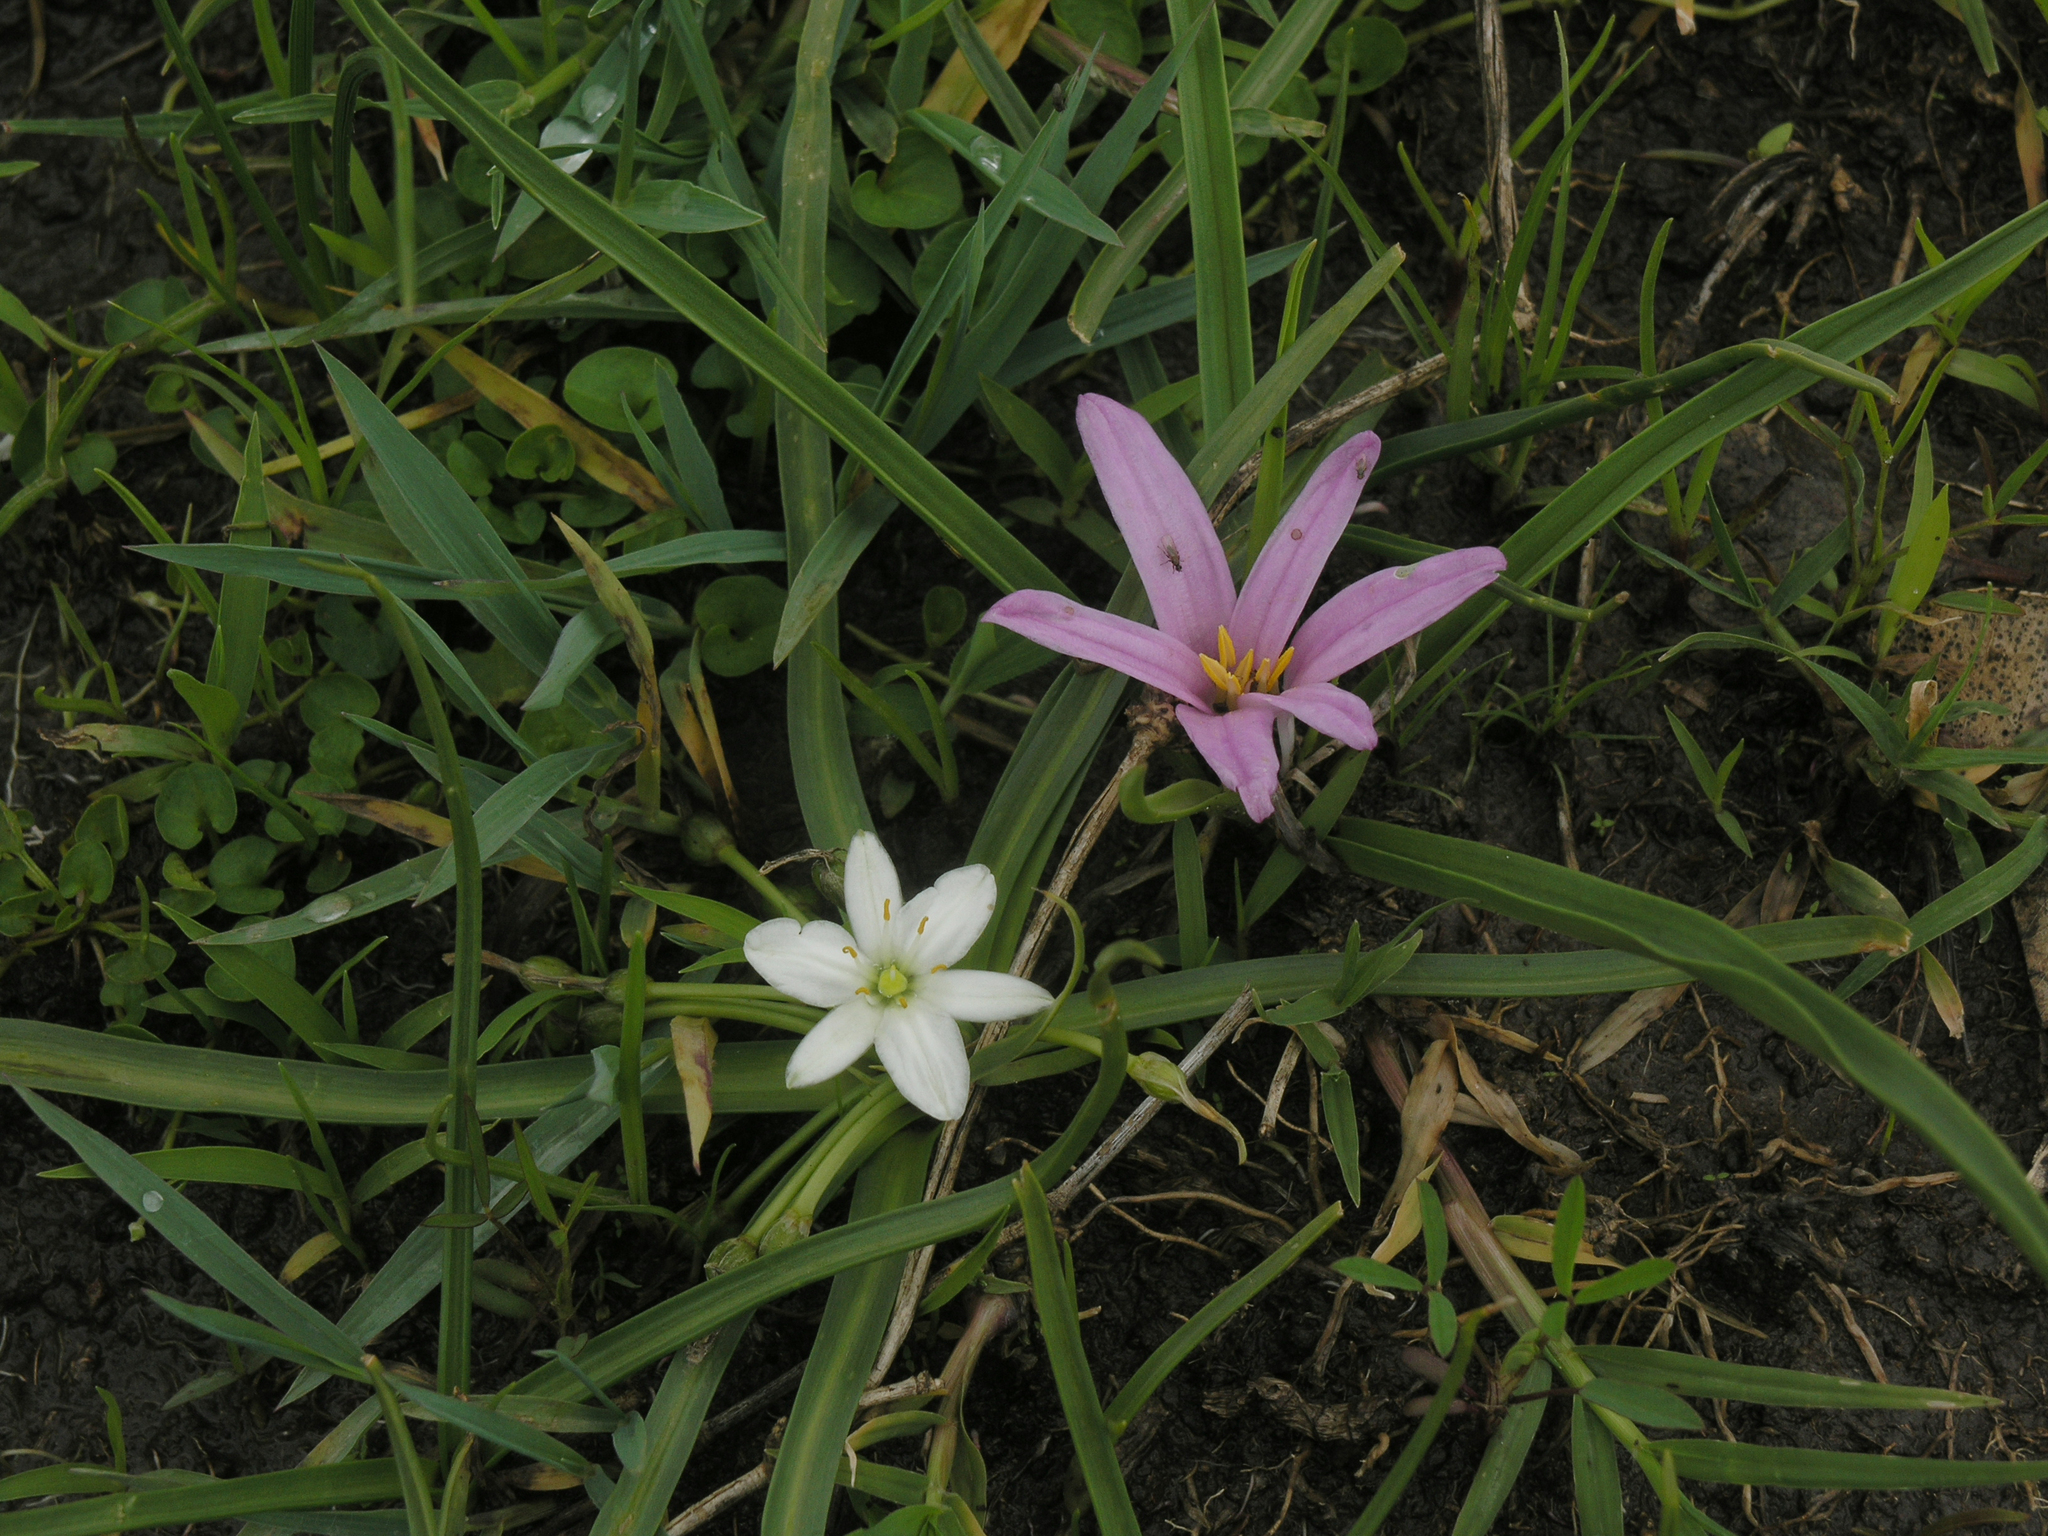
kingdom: Plantae
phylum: Tracheophyta
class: Liliopsida
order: Liliales
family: Colchicaceae
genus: Colchicum
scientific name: Colchicum schimperianum
